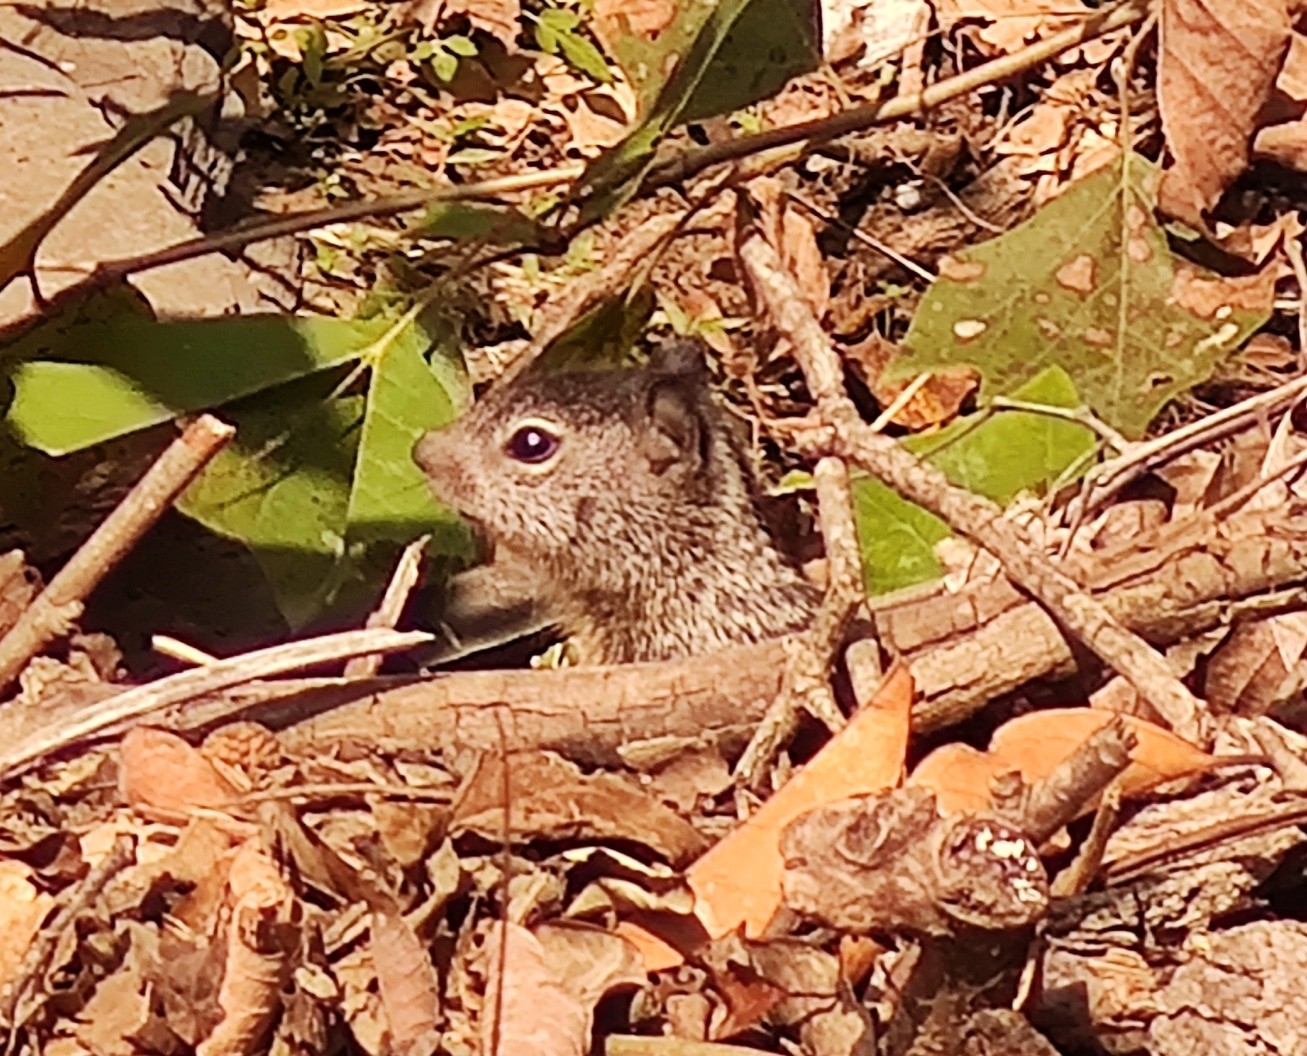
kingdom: Animalia
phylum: Chordata
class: Mammalia
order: Rodentia
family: Sciuridae
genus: Otospermophilus
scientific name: Otospermophilus variegatus
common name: Rock squirrel
